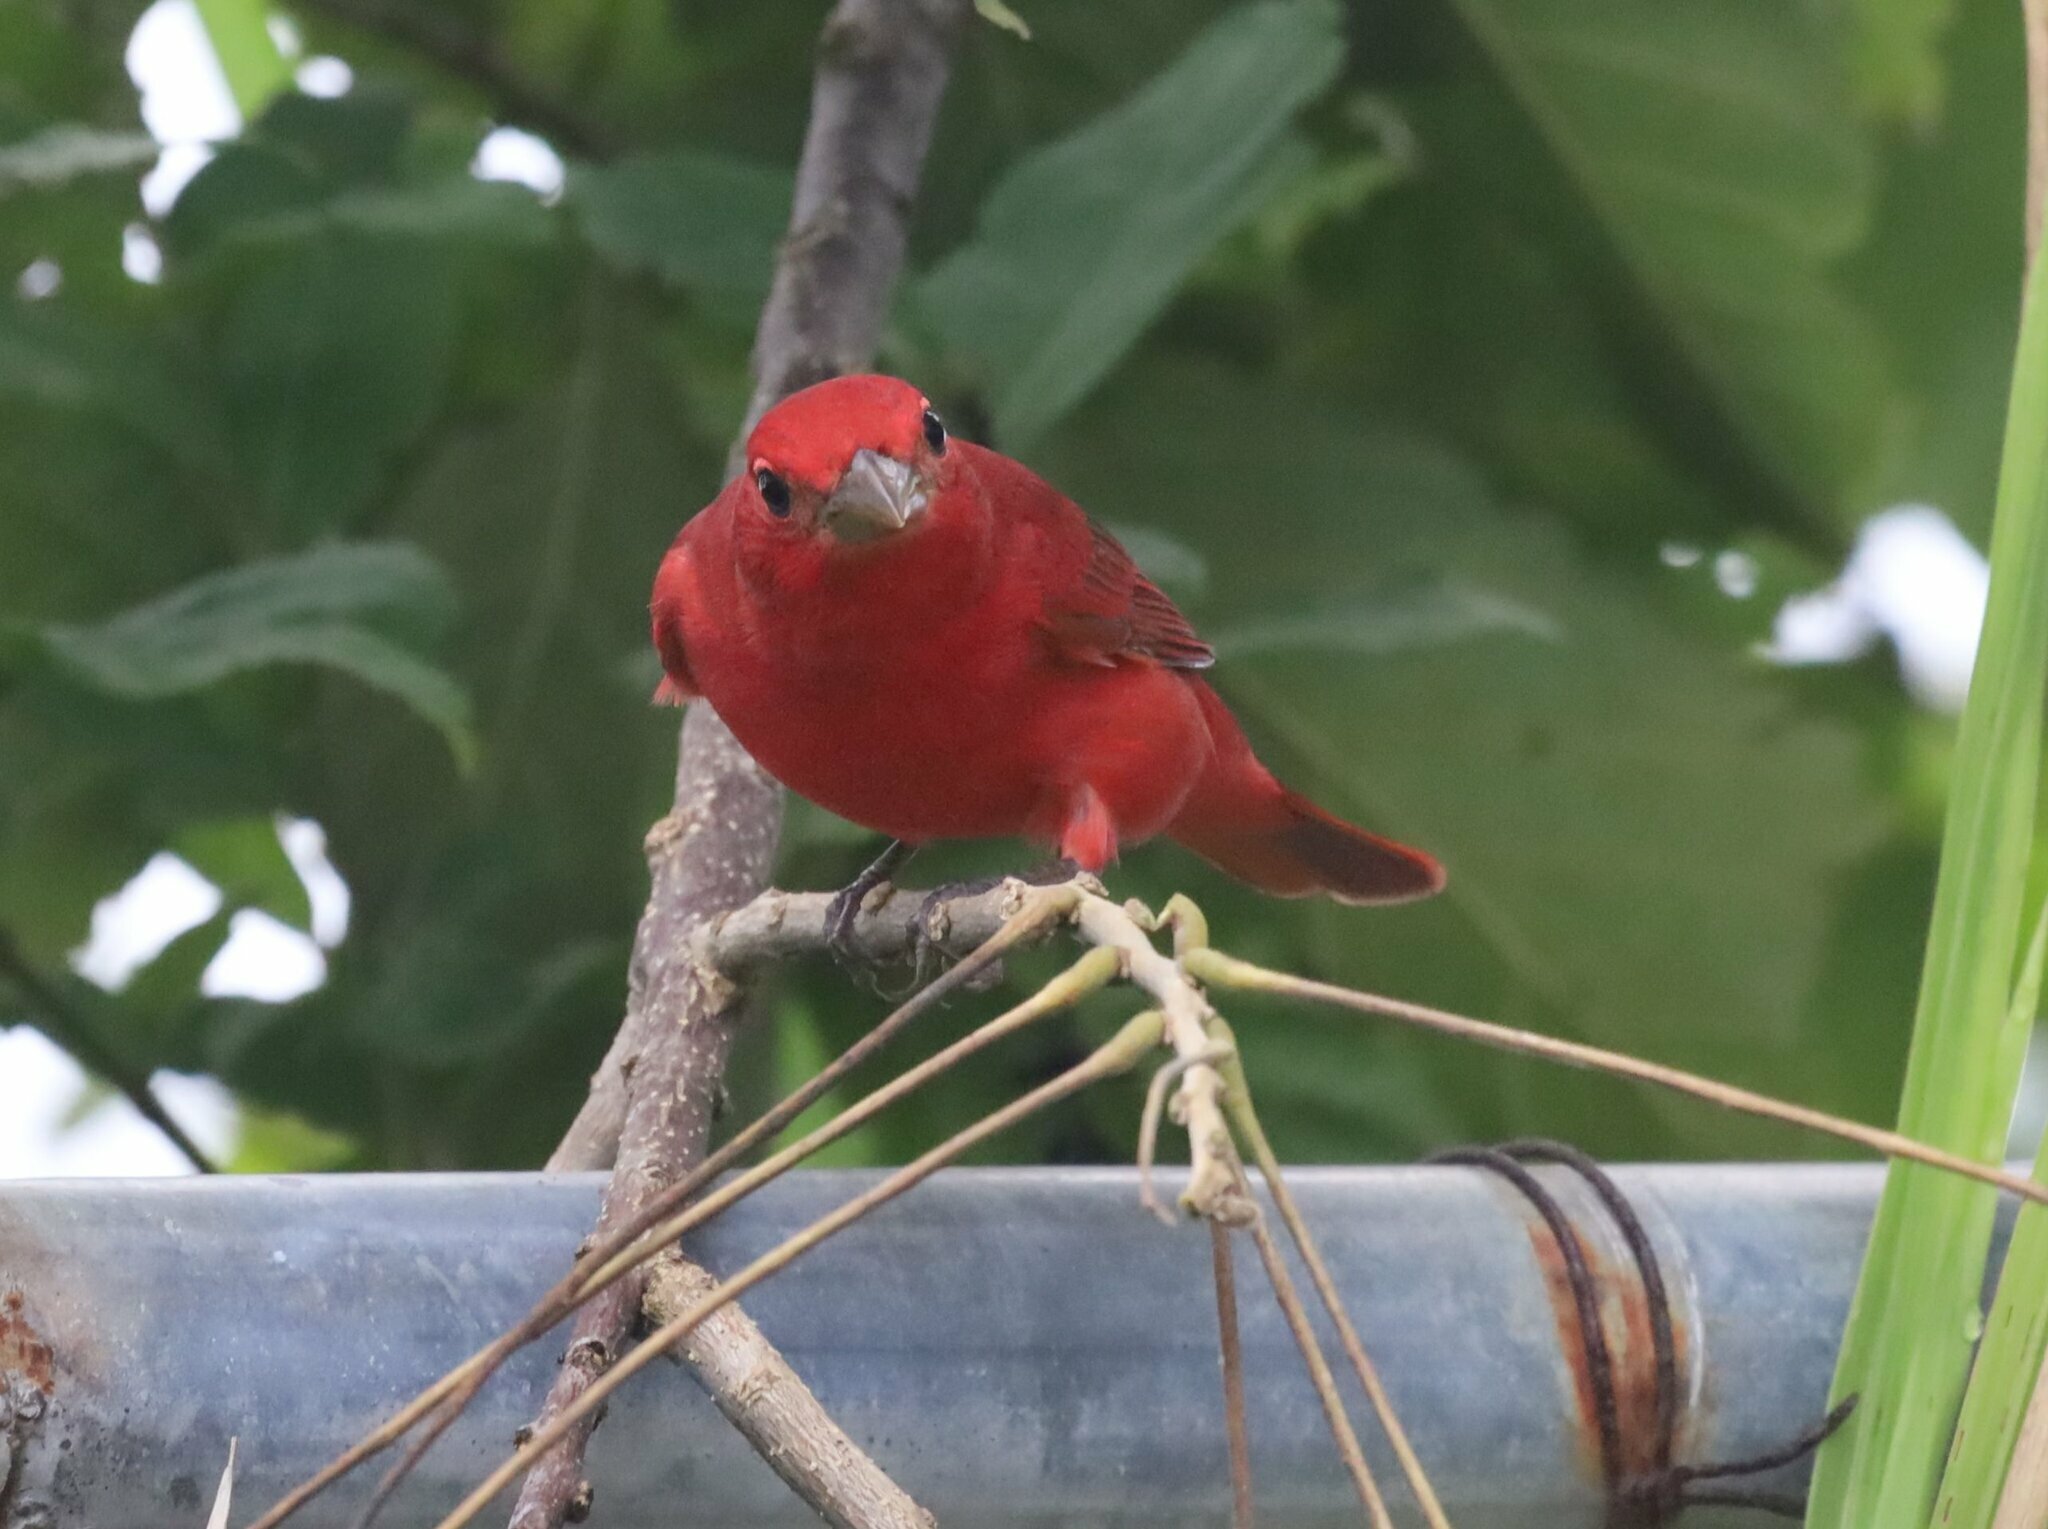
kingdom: Animalia
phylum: Chordata
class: Aves
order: Passeriformes
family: Cardinalidae
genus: Piranga
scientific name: Piranga rubra
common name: Summer tanager
